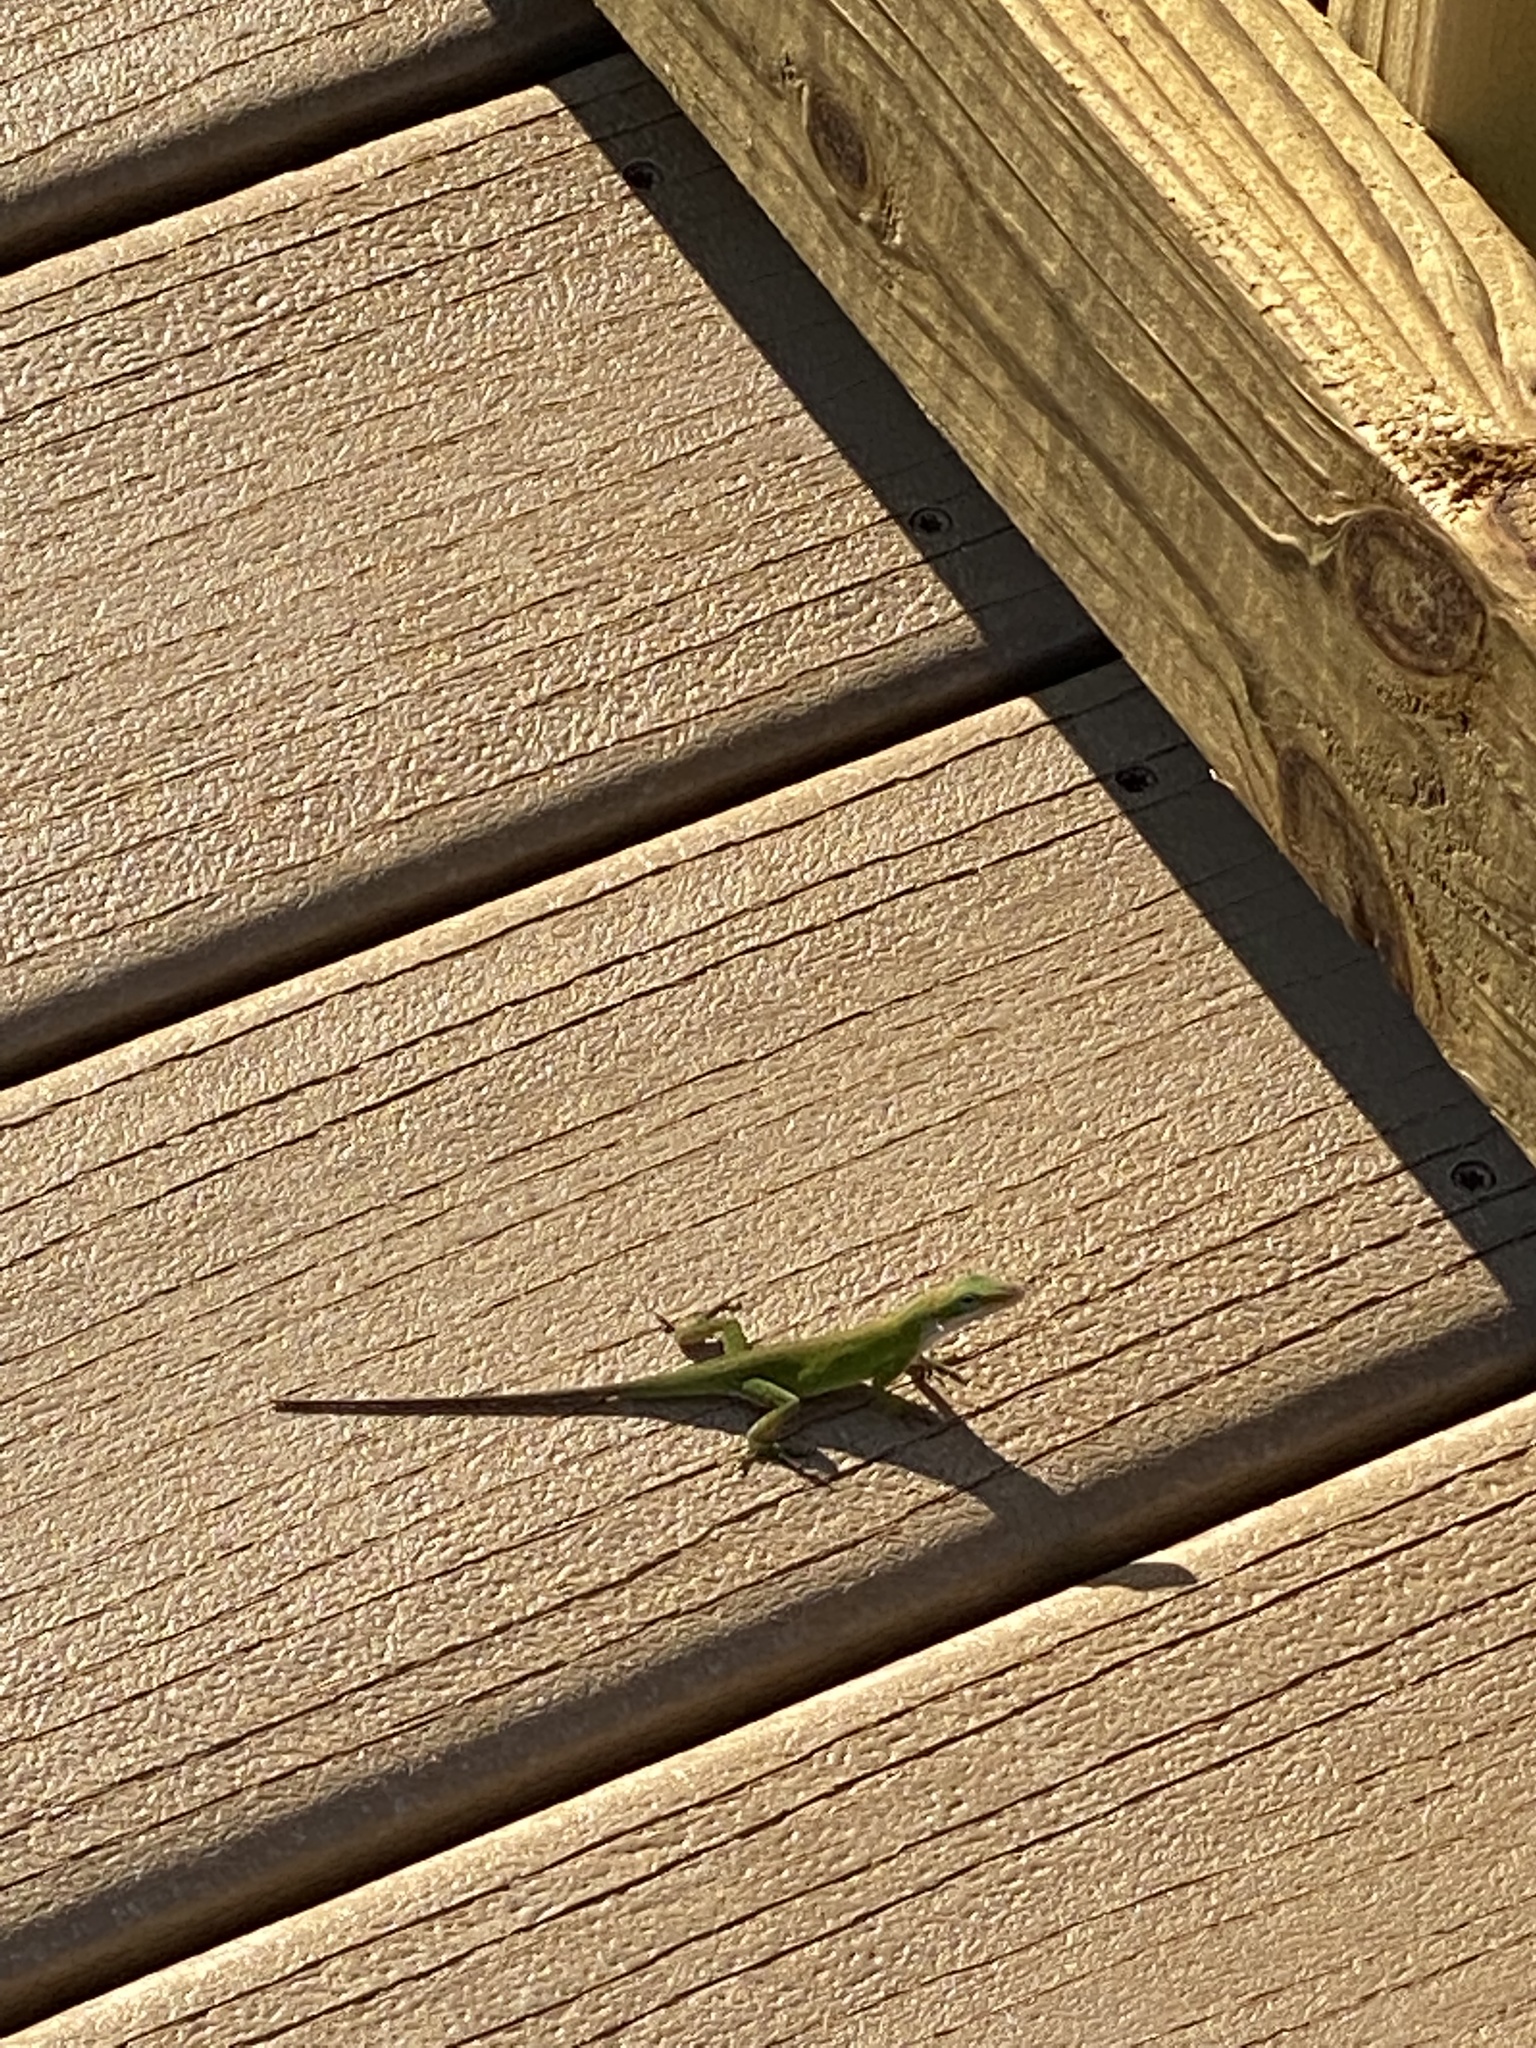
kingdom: Animalia
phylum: Chordata
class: Squamata
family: Dactyloidae
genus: Anolis
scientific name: Anolis carolinensis
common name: Green anole
